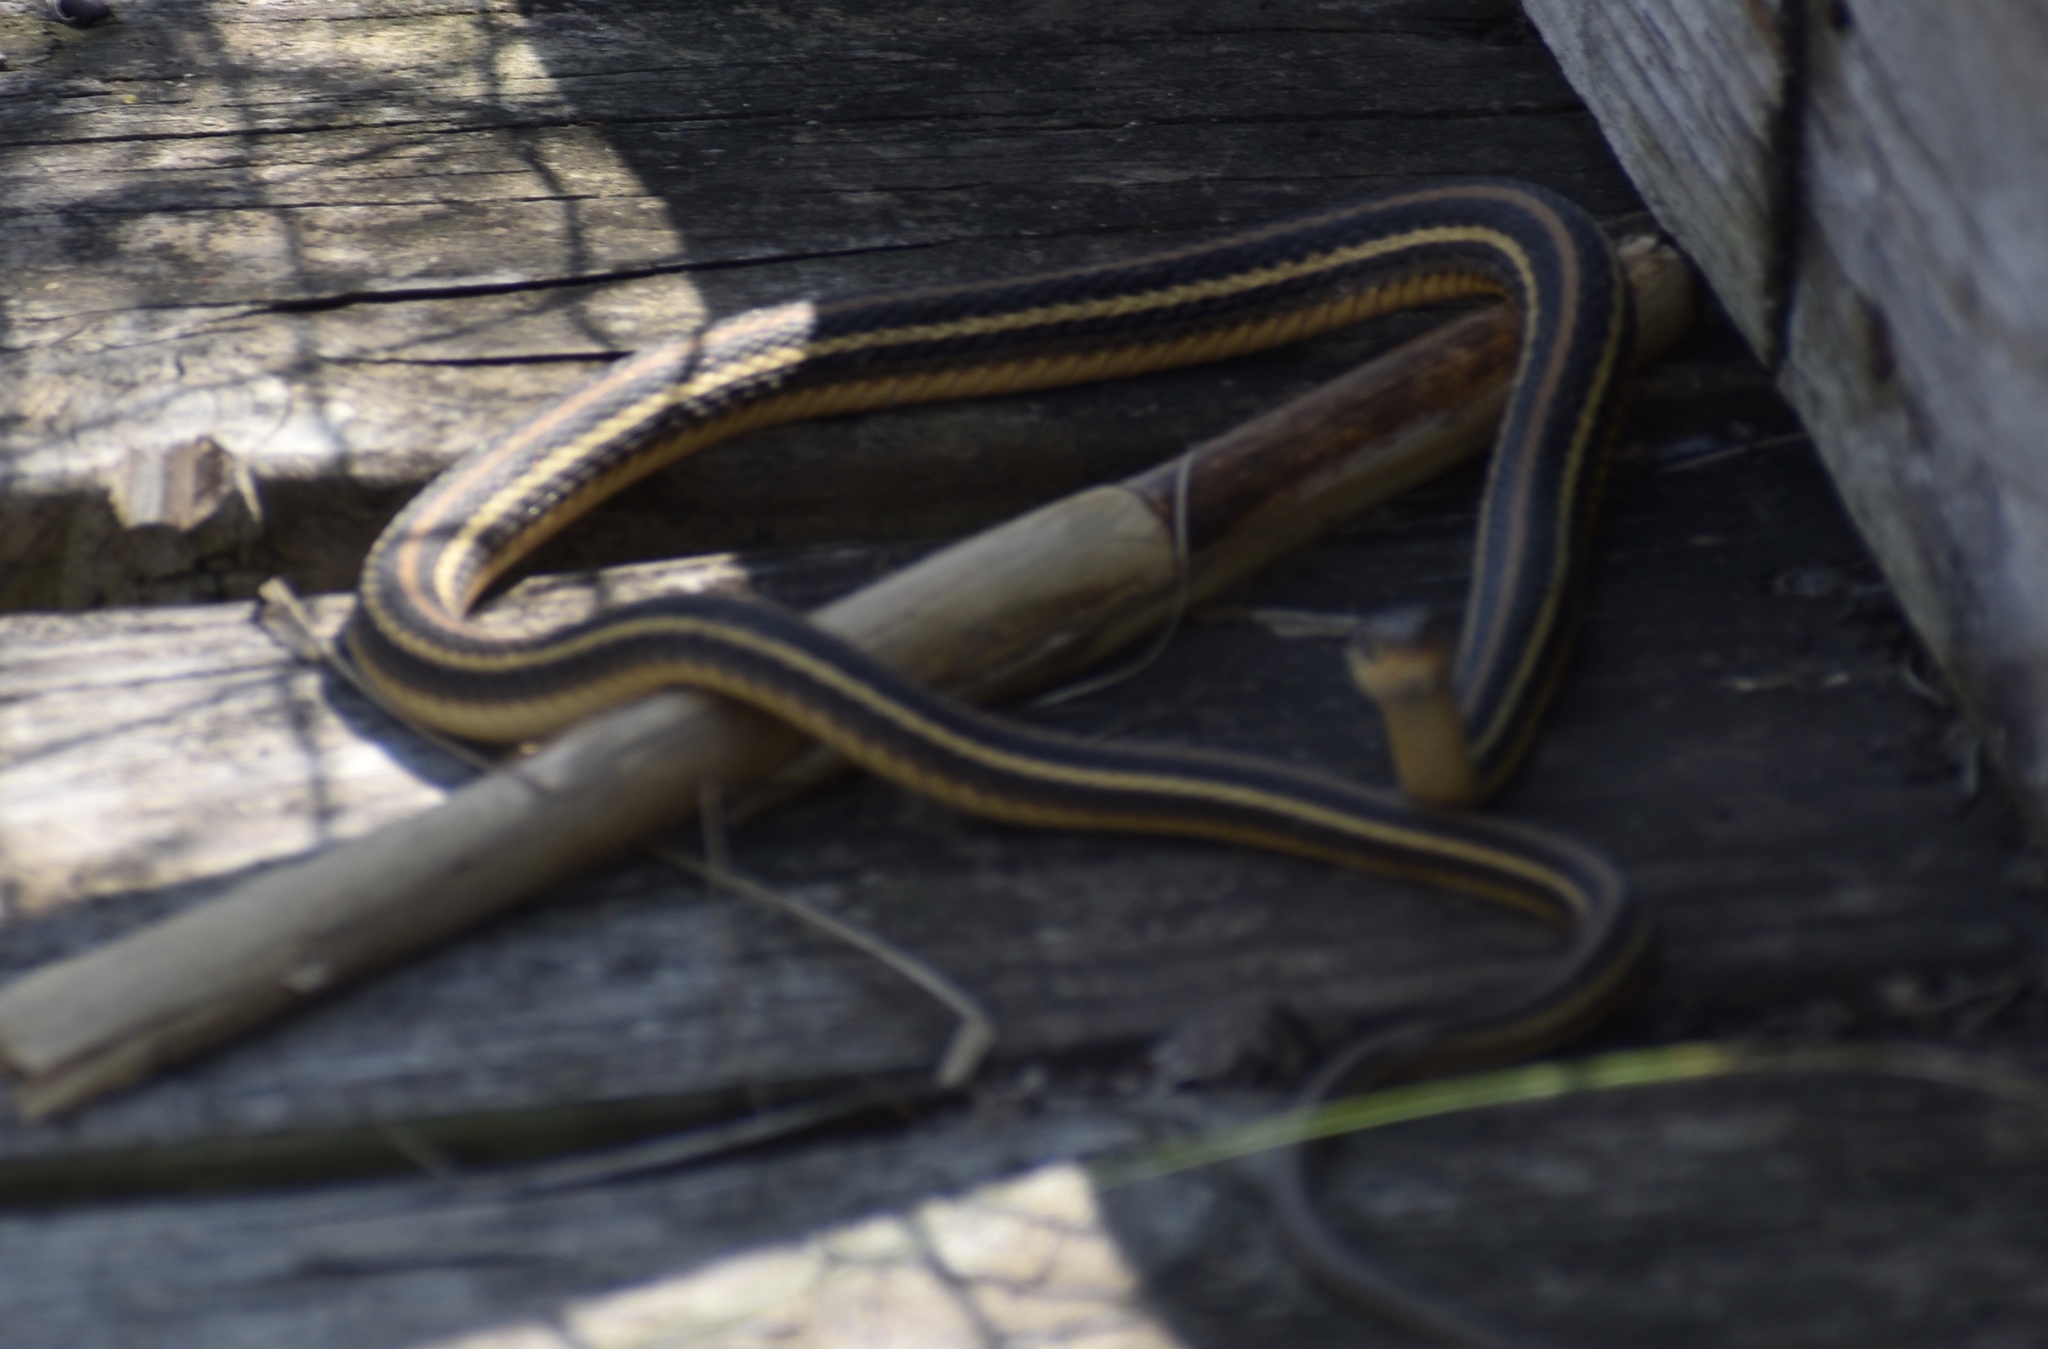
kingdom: Animalia
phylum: Chordata
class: Squamata
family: Colubridae
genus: Thamnophis
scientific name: Thamnophis proximus
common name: Western ribbon snake
